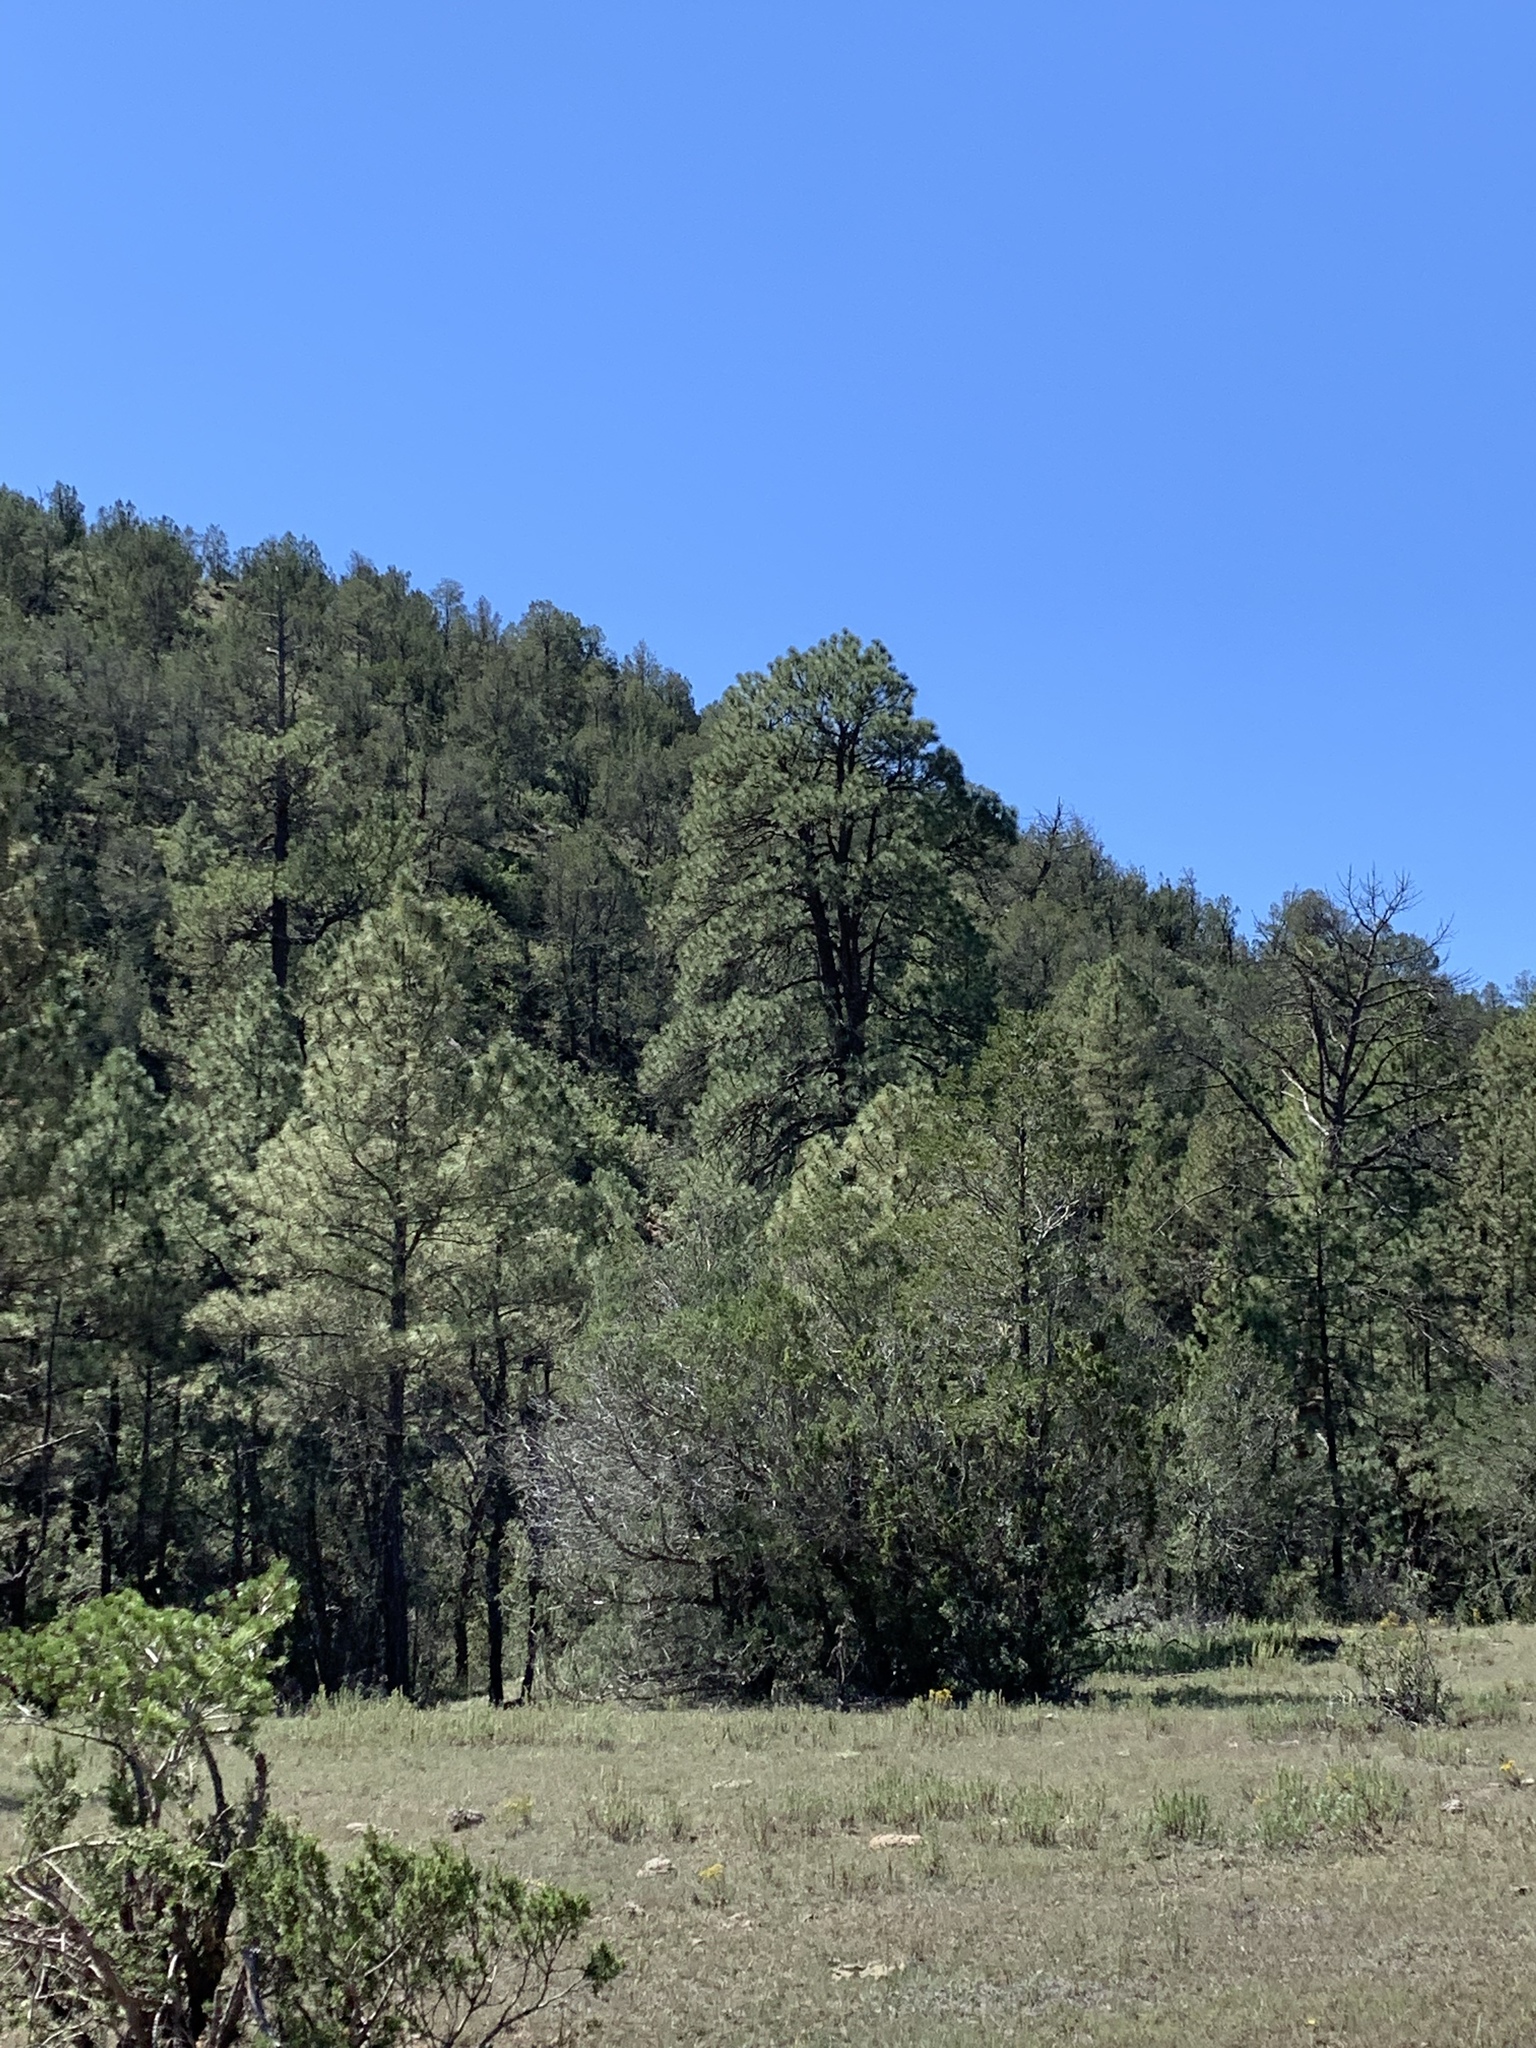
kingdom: Plantae
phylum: Tracheophyta
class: Pinopsida
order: Pinales
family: Pinaceae
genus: Pinus
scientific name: Pinus ponderosa
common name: Western yellow-pine
